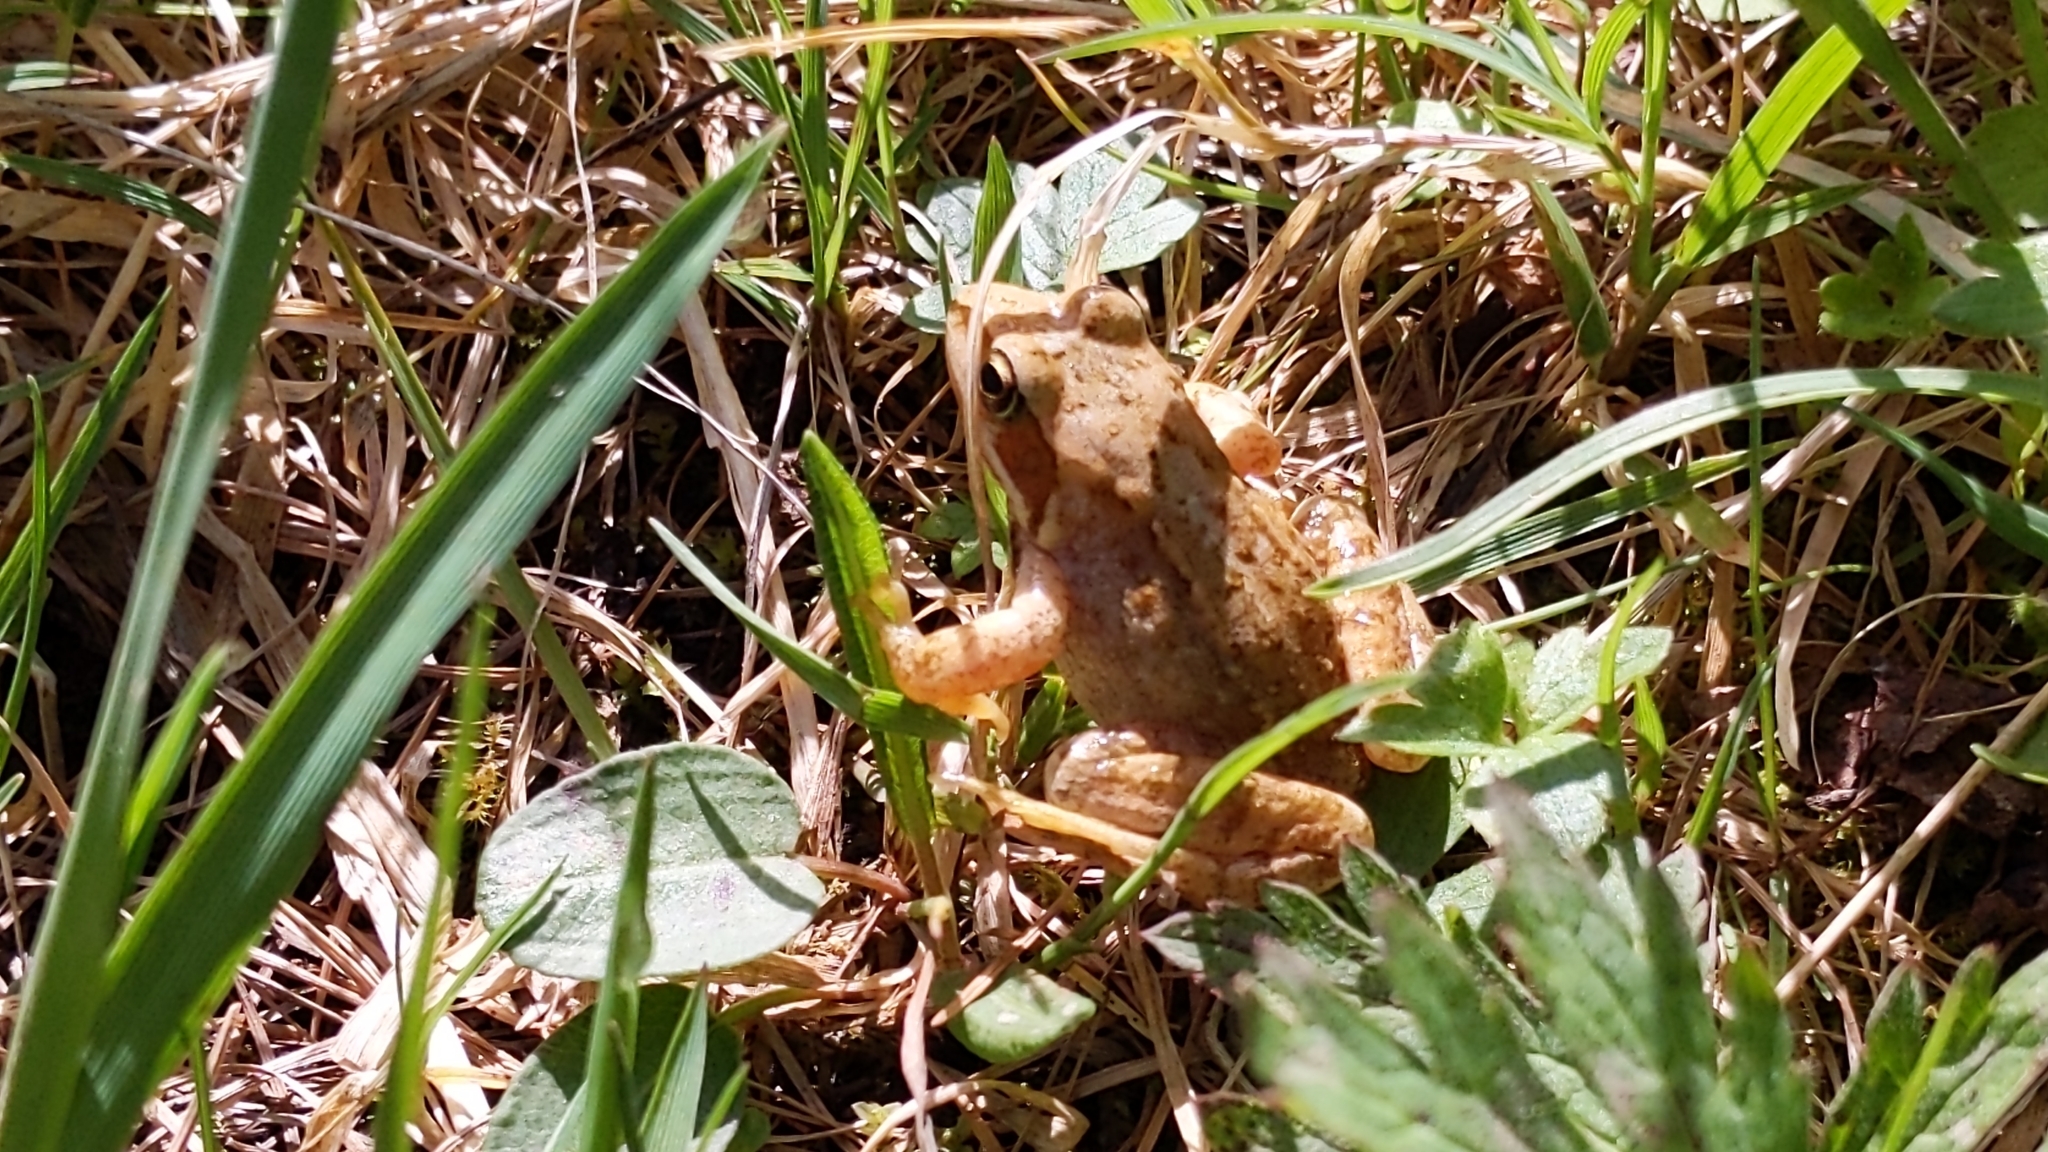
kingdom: Animalia
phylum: Chordata
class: Amphibia
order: Anura
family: Ranidae
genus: Rana
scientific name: Rana temporaria
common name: Common frog
